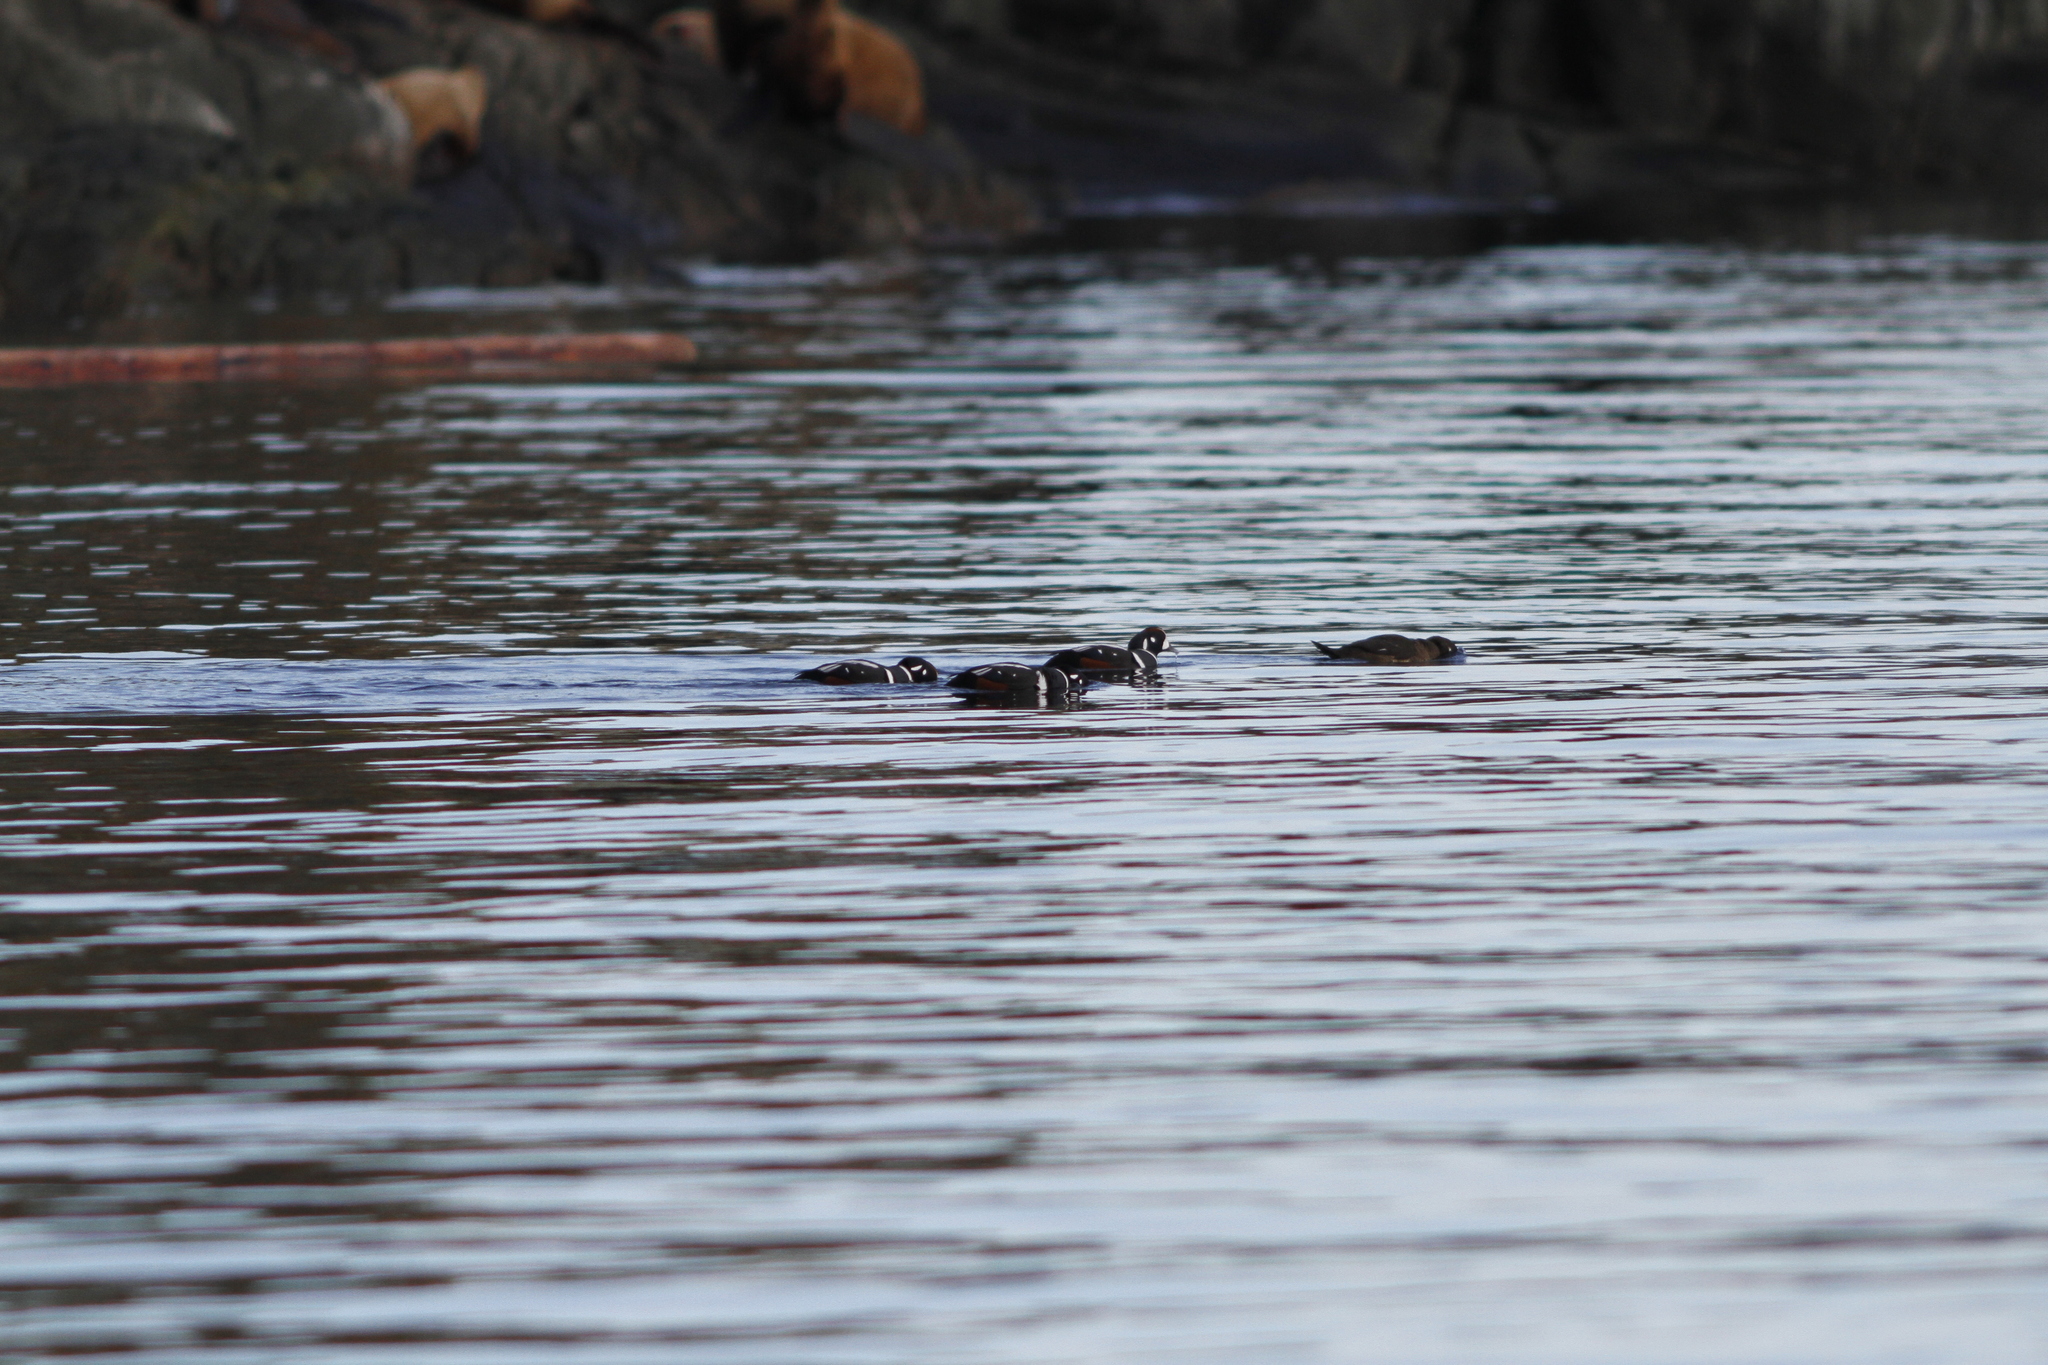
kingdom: Animalia
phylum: Chordata
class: Aves
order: Anseriformes
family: Anatidae
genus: Histrionicus
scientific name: Histrionicus histrionicus
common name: Harlequin duck
